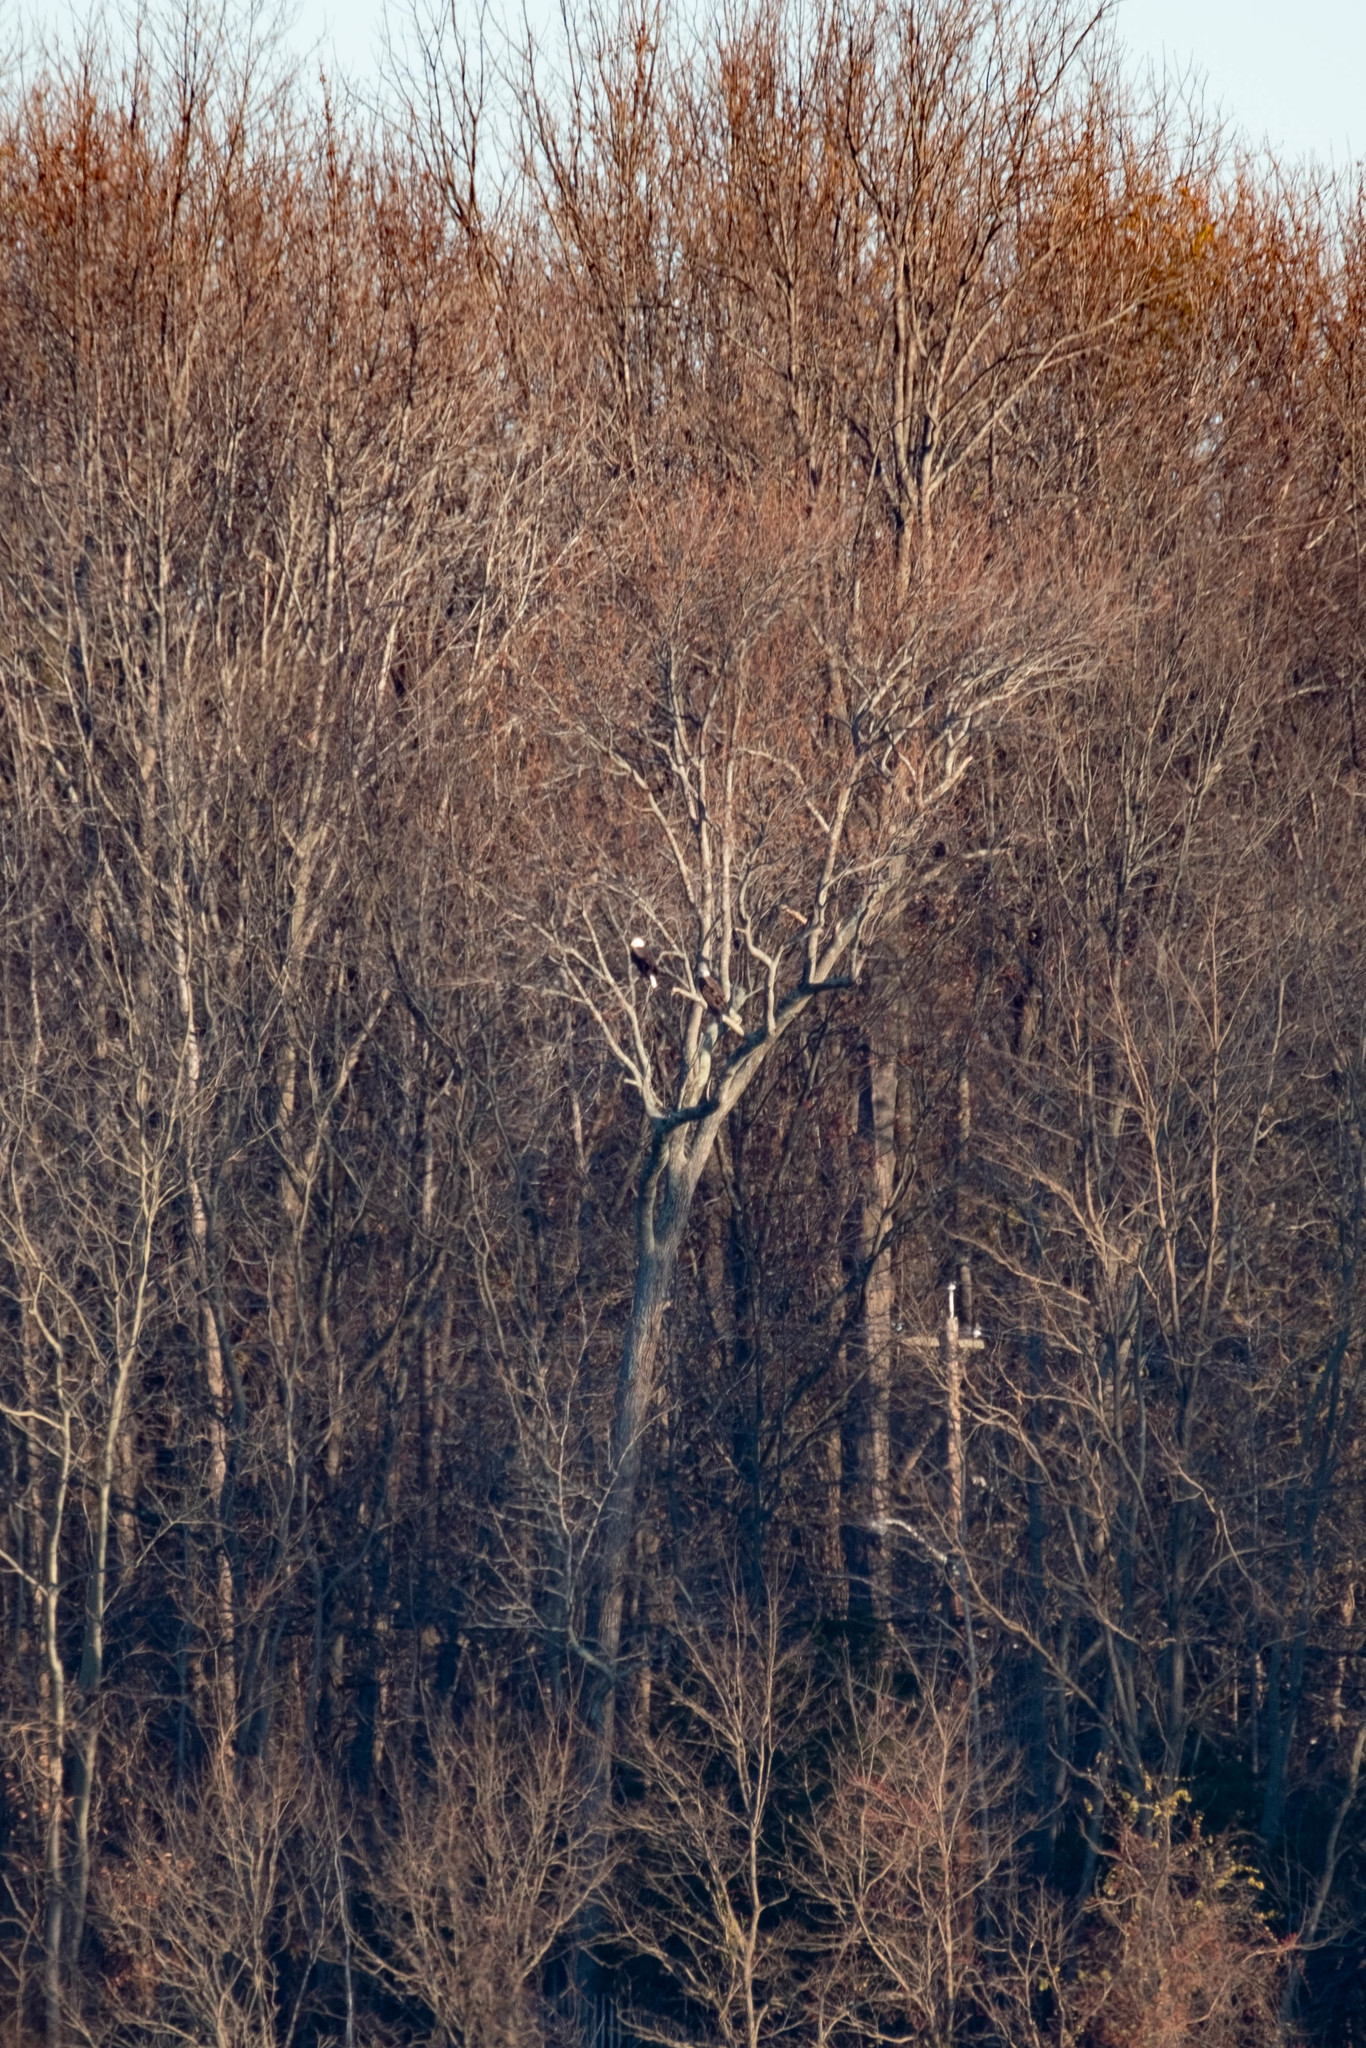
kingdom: Animalia
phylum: Chordata
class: Aves
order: Accipitriformes
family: Accipitridae
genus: Haliaeetus
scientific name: Haliaeetus leucocephalus
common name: Bald eagle
